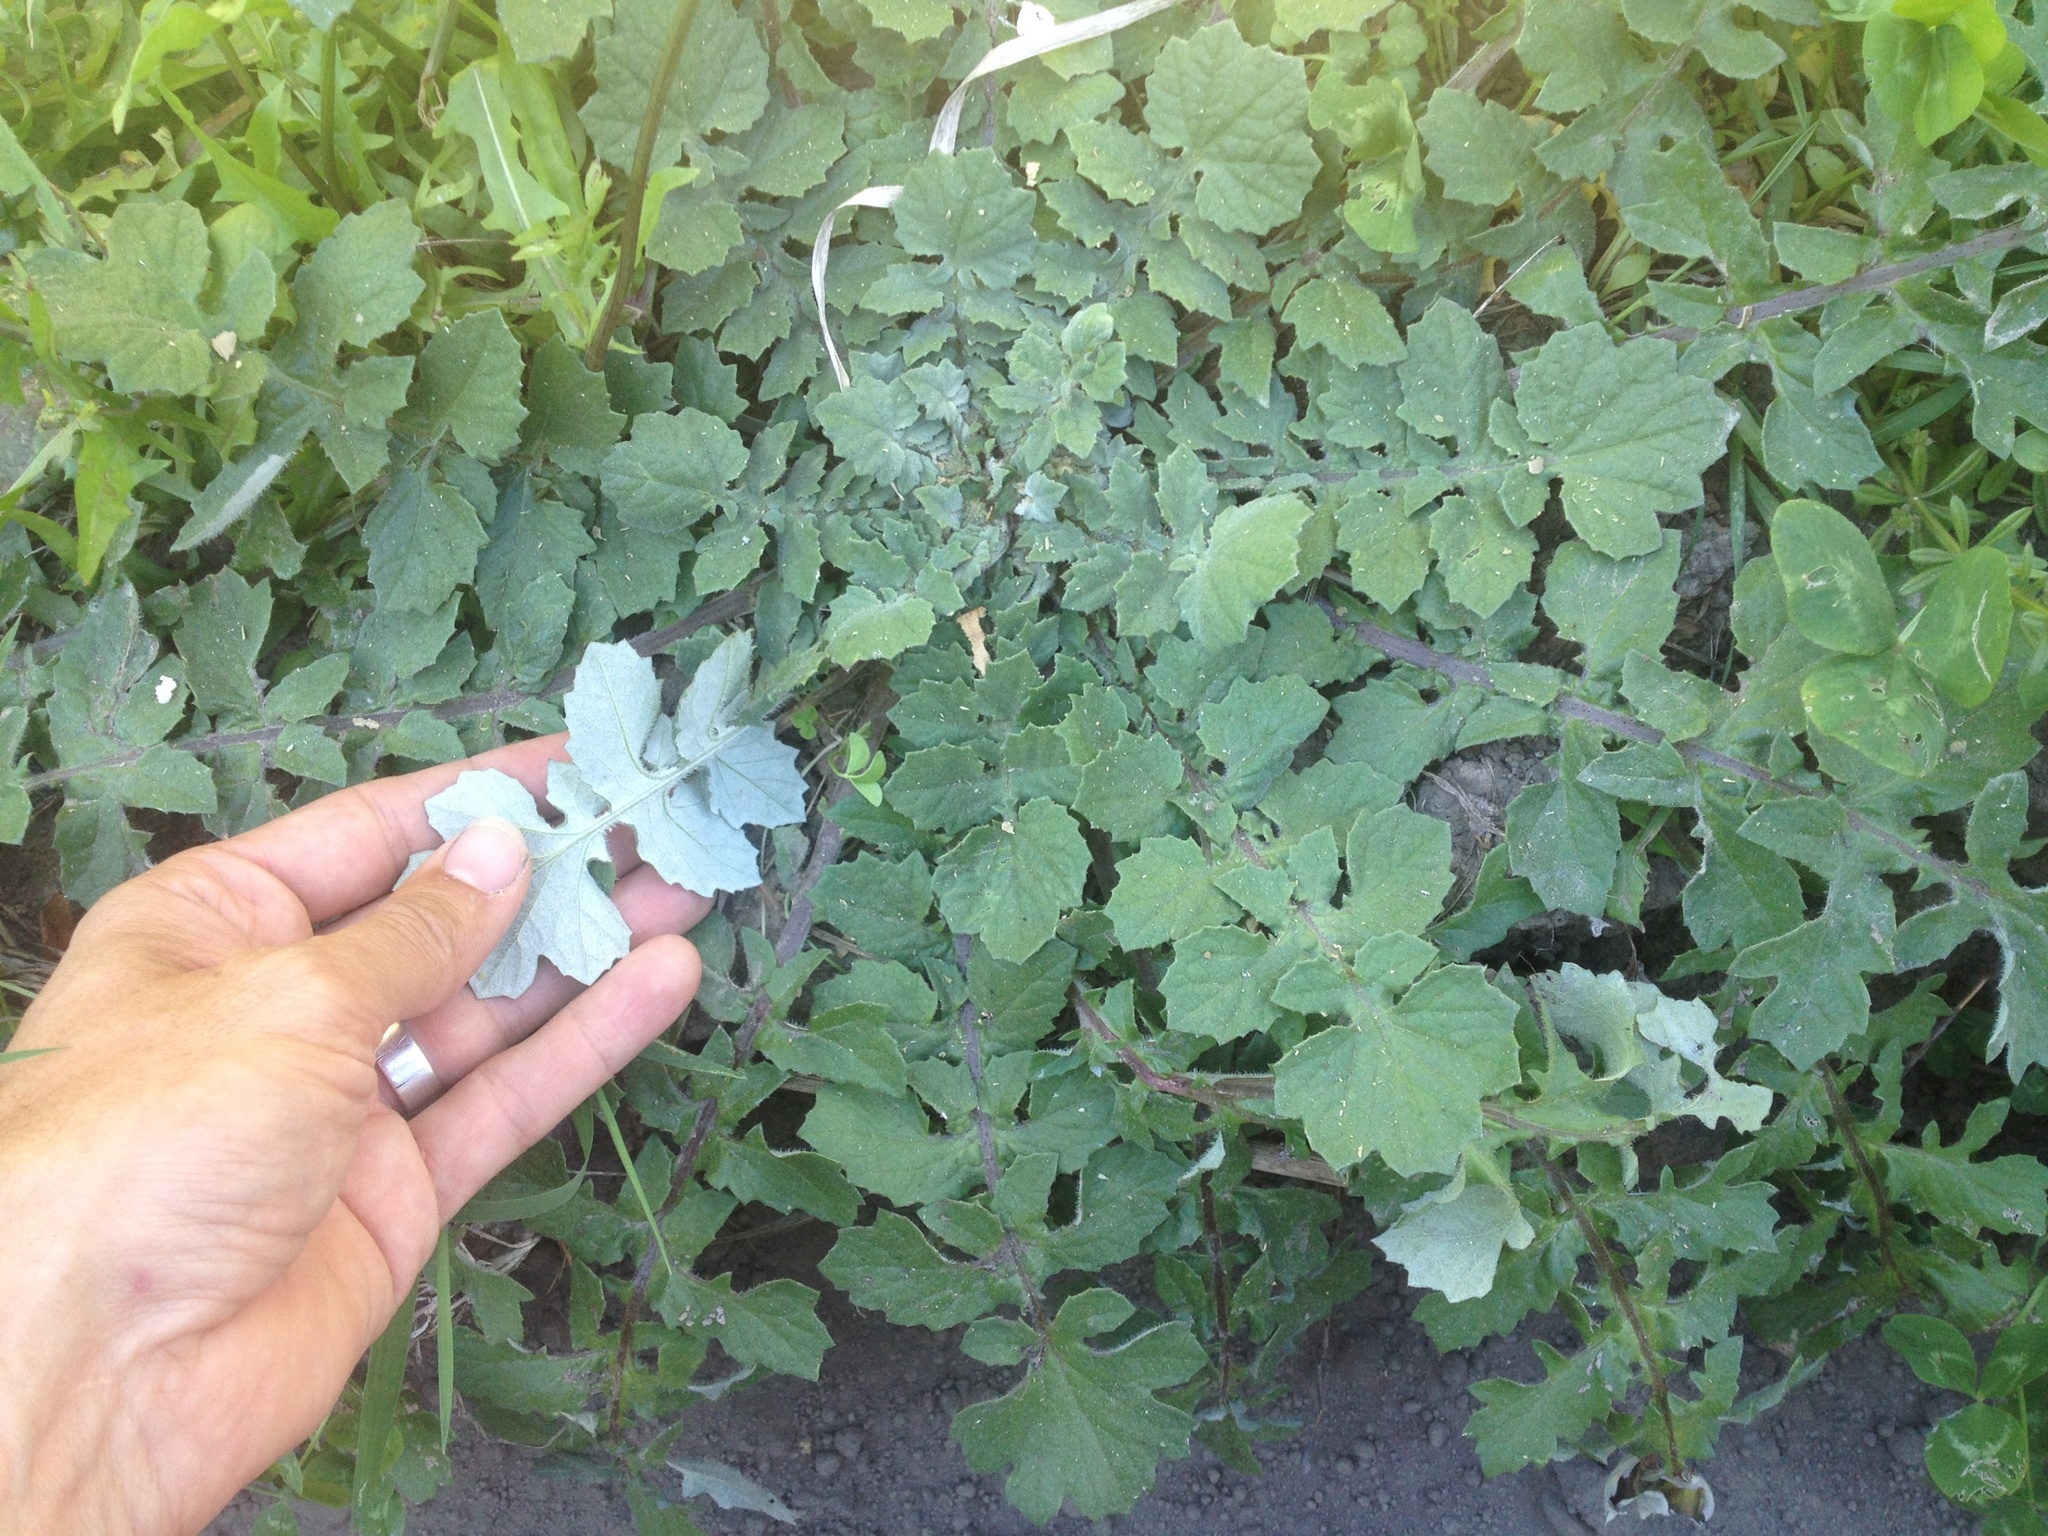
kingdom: Plantae
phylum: Tracheophyta
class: Magnoliopsida
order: Asterales
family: Asteraceae
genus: Arctotheca
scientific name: Arctotheca calendula
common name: Capeweed
